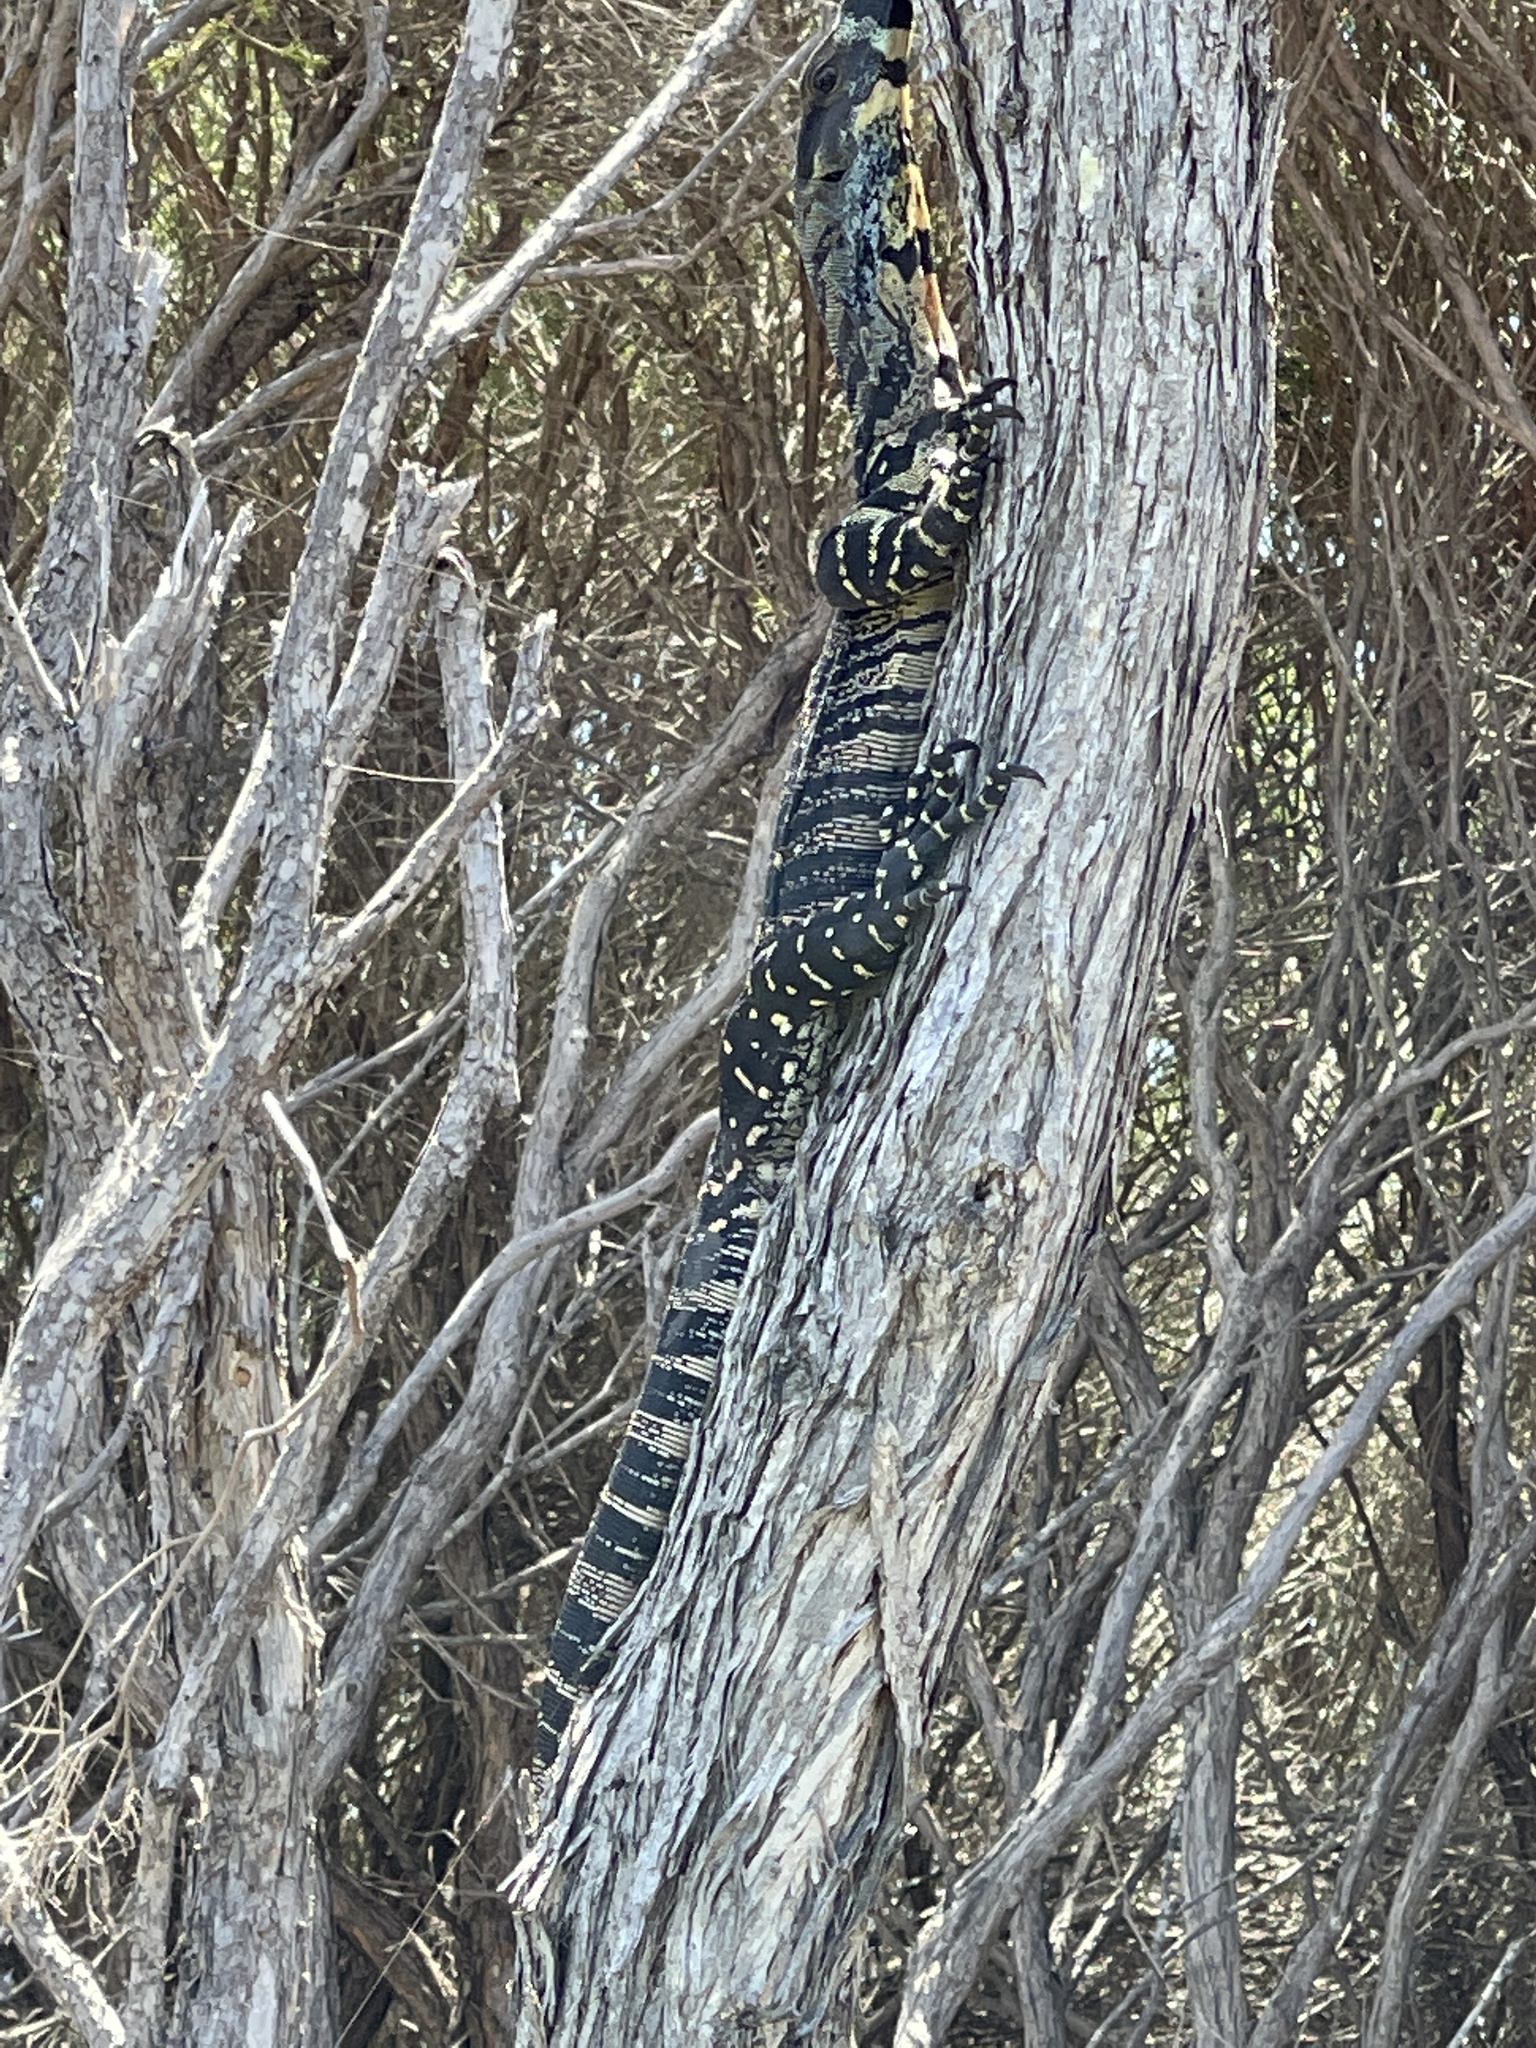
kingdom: Animalia
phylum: Chordata
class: Squamata
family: Varanidae
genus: Varanus
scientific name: Varanus varius
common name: Lace monitor
